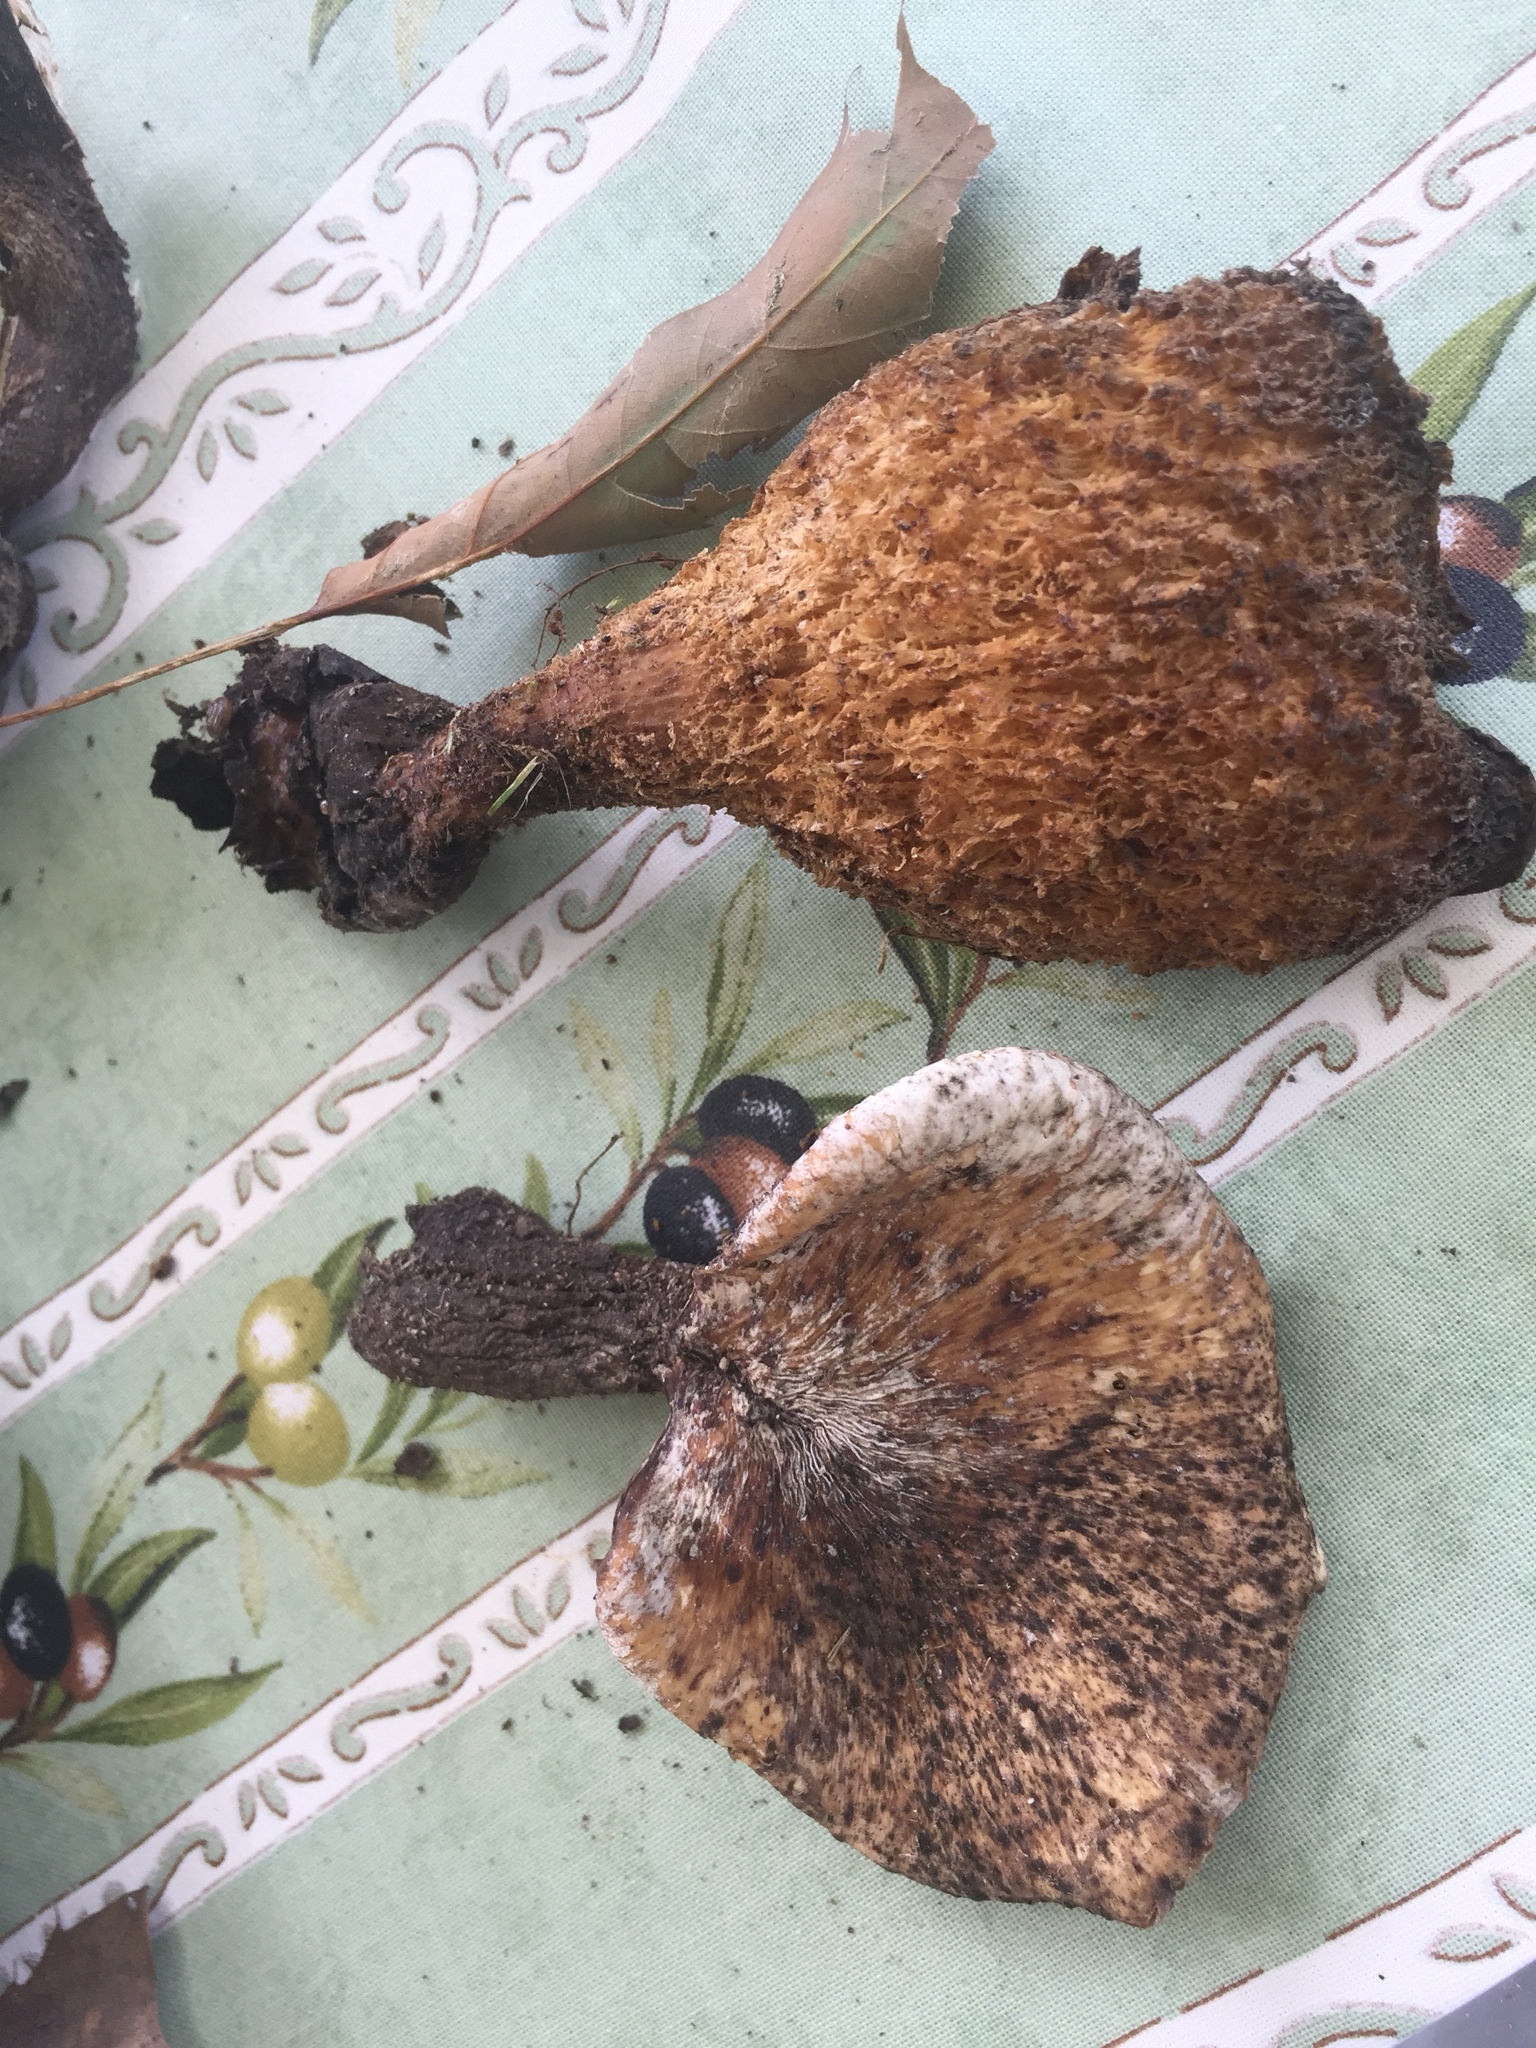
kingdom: Fungi
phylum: Basidiomycota
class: Agaricomycetes
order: Polyporales
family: Polyporaceae
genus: Cerioporus
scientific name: Cerioporus squamosus
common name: Dryad's saddle
